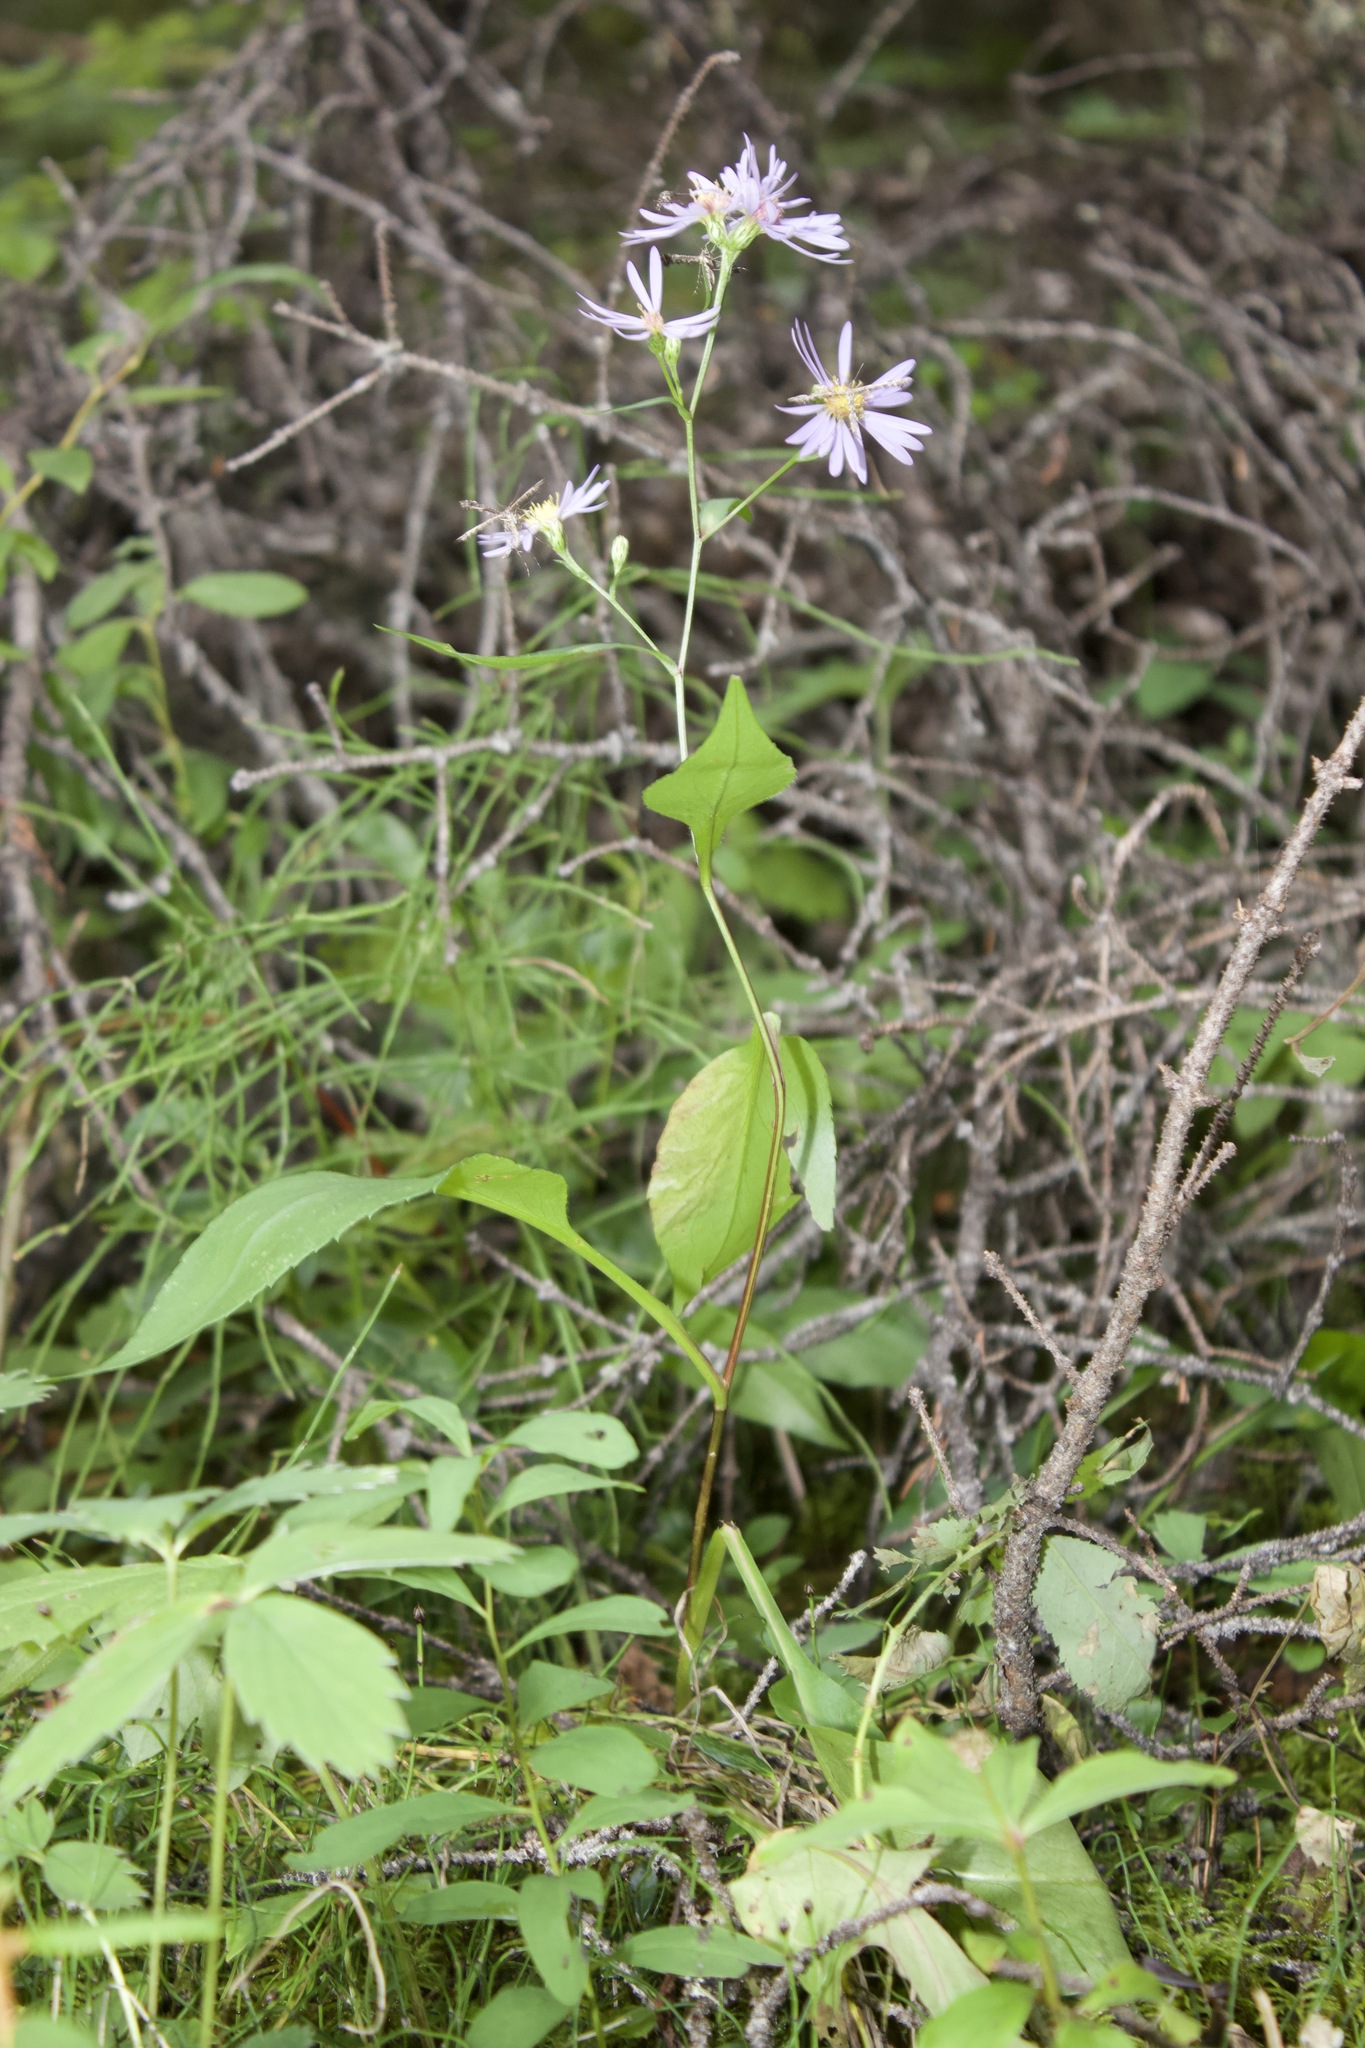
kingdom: Plantae
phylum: Tracheophyta
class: Magnoliopsida
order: Asterales
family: Asteraceae
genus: Symphyotrichum
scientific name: Symphyotrichum ciliolatum
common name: Fringed blue aster
